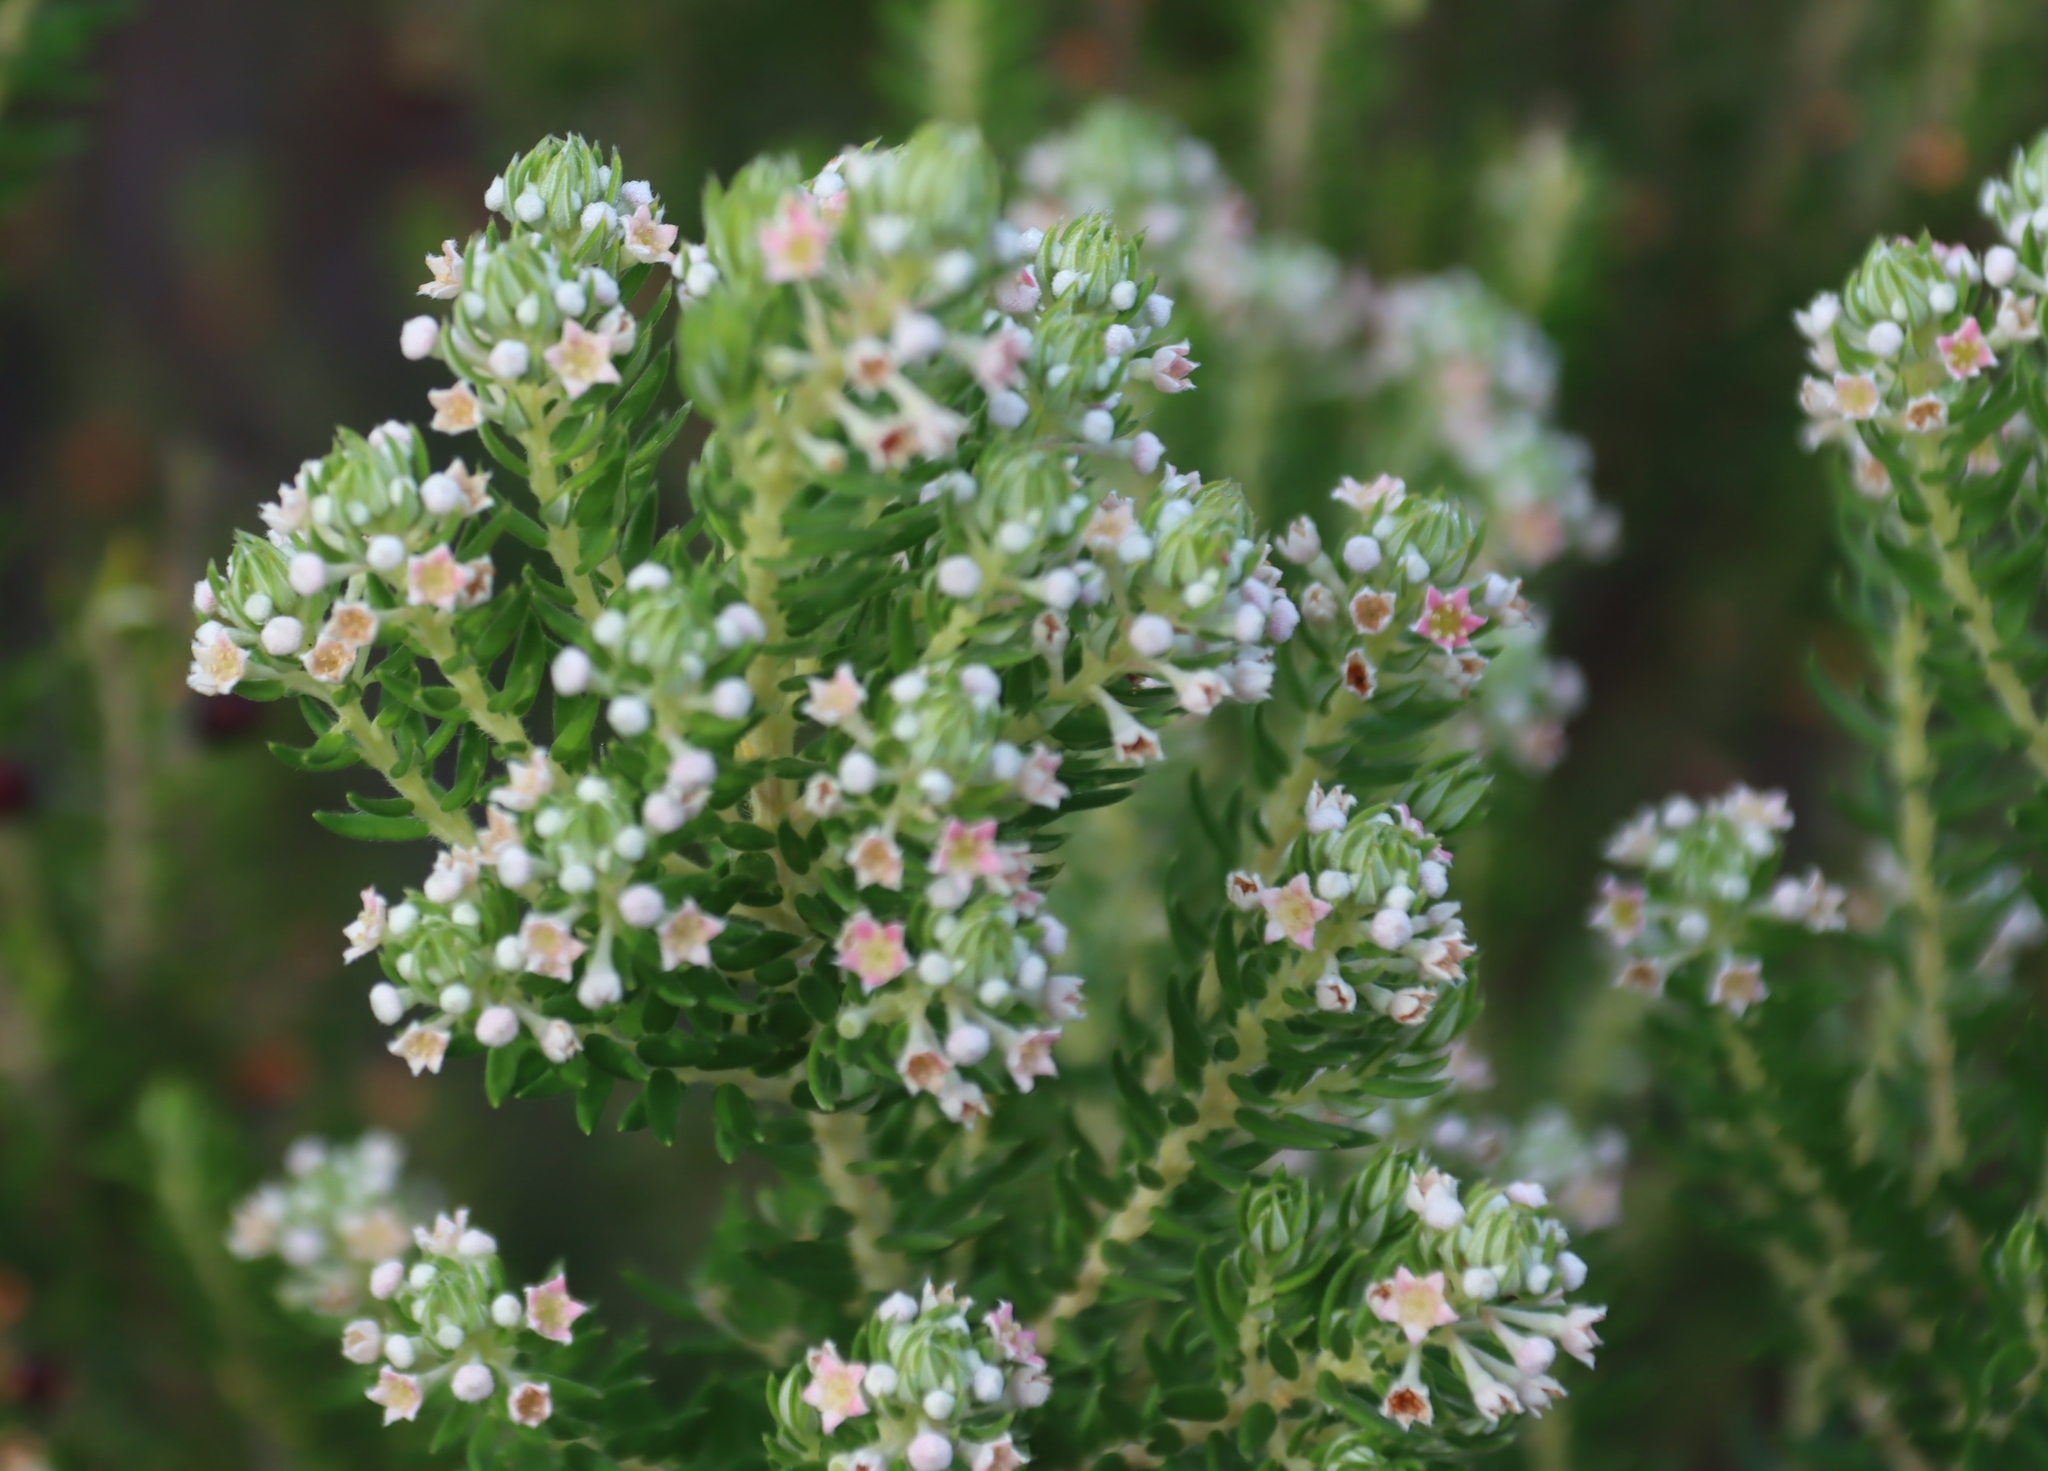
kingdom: Plantae
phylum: Tracheophyta
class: Magnoliopsida
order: Rosales
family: Rhamnaceae
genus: Phylica
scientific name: Phylica pinea
